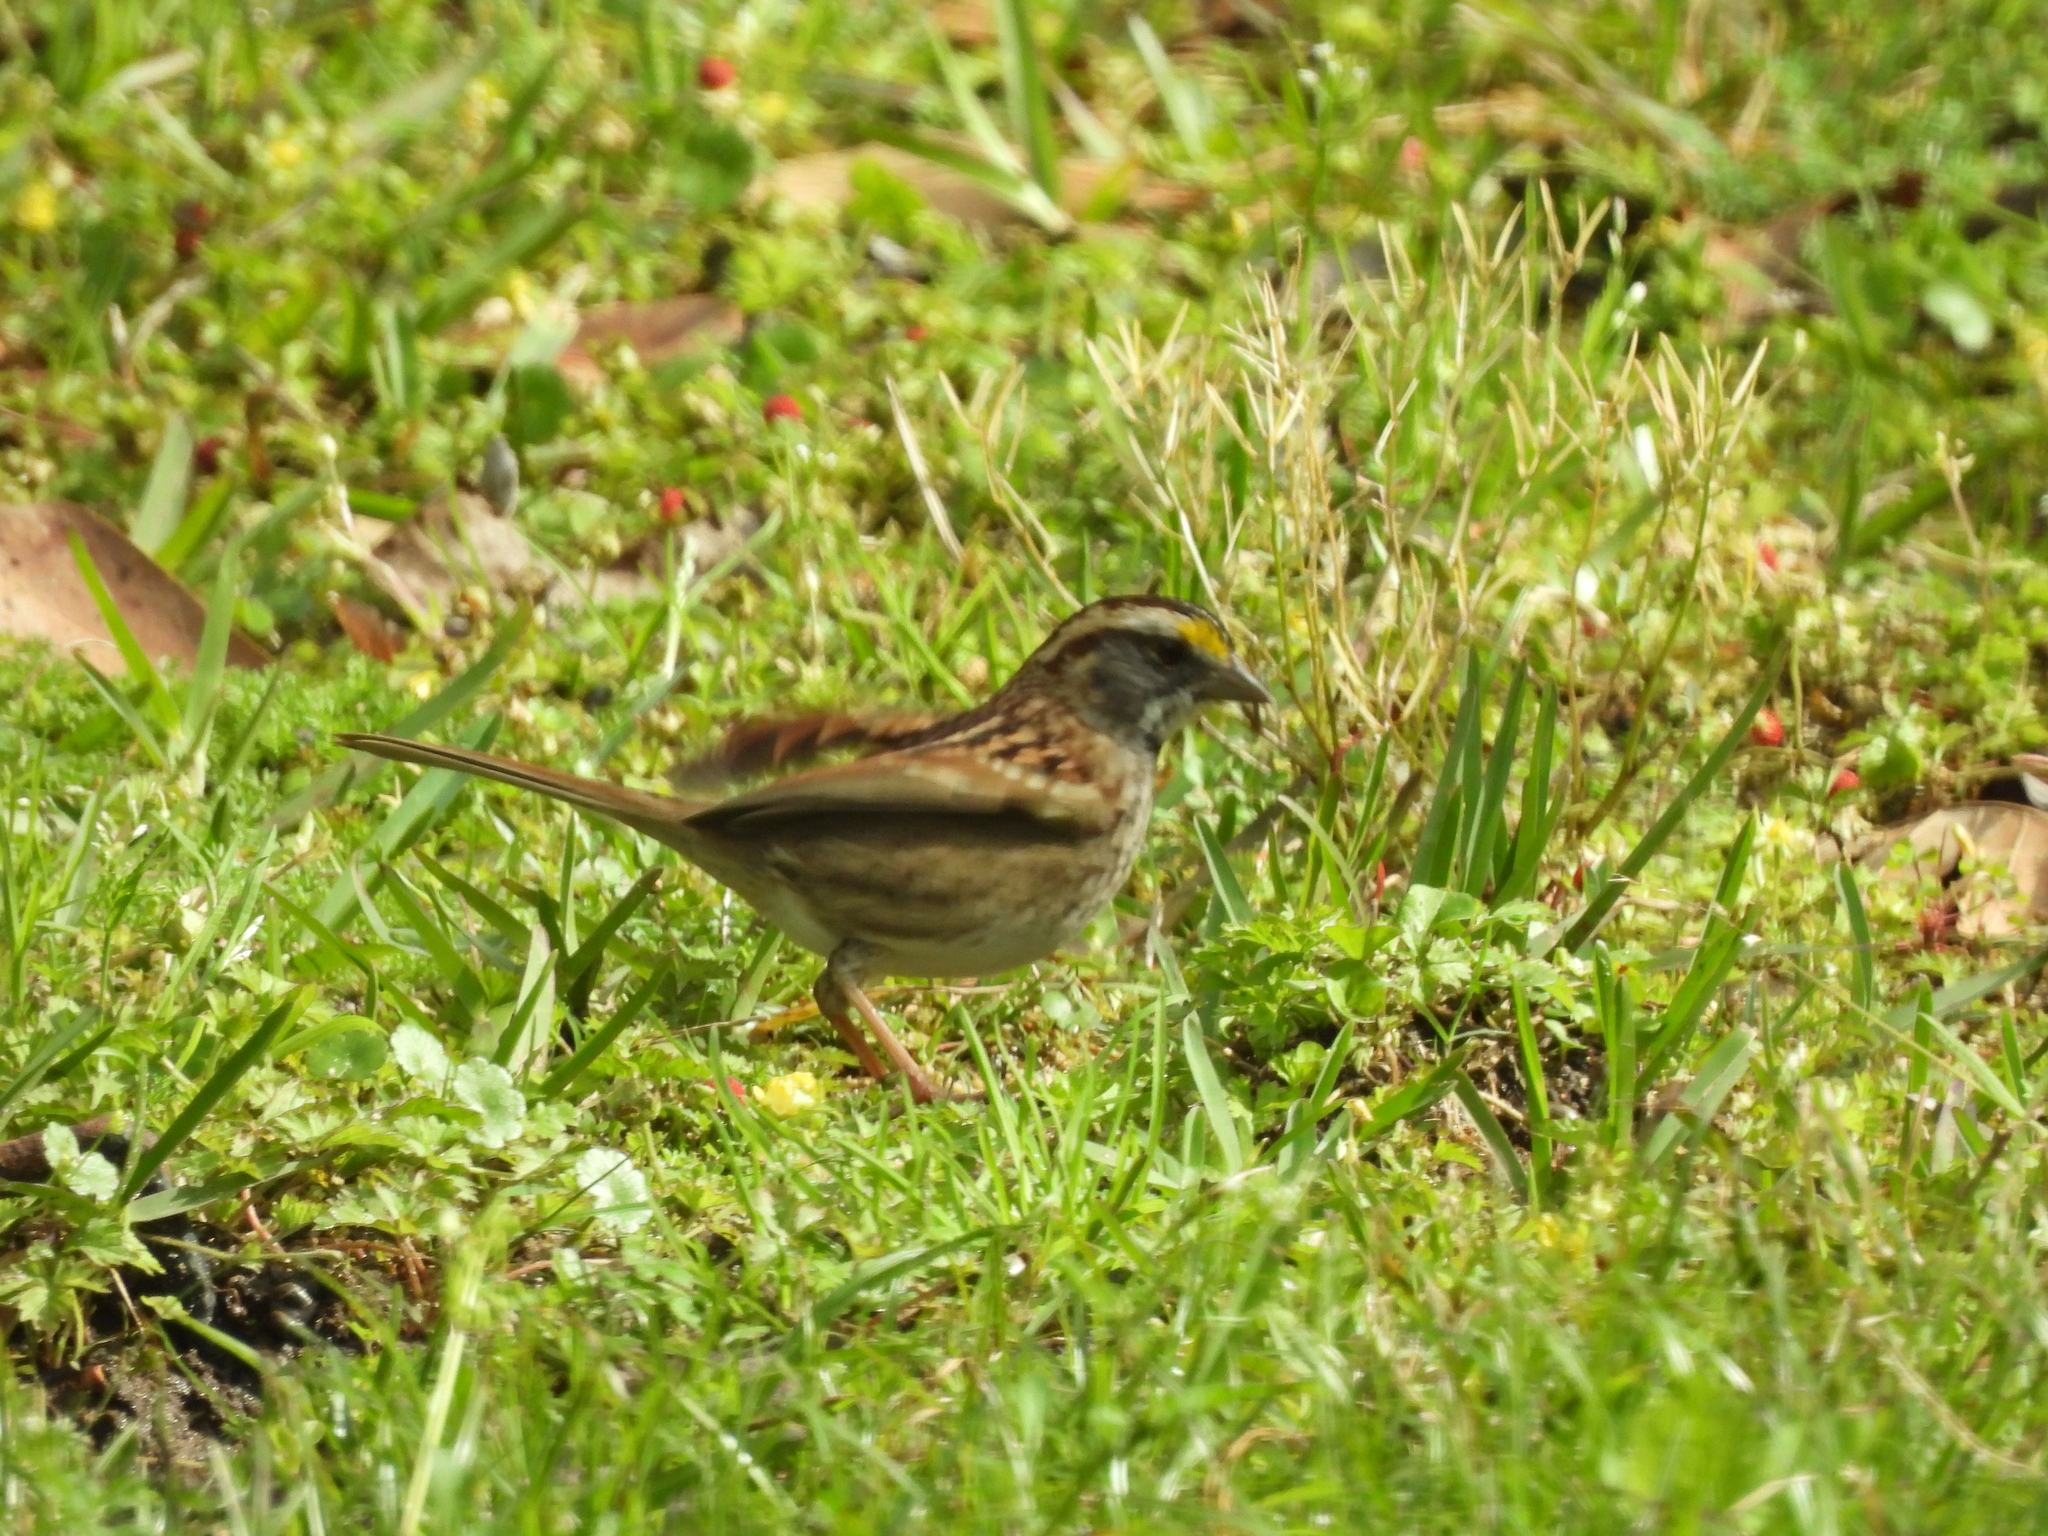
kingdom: Animalia
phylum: Chordata
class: Aves
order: Passeriformes
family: Passerellidae
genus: Zonotrichia
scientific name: Zonotrichia albicollis
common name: White-throated sparrow
